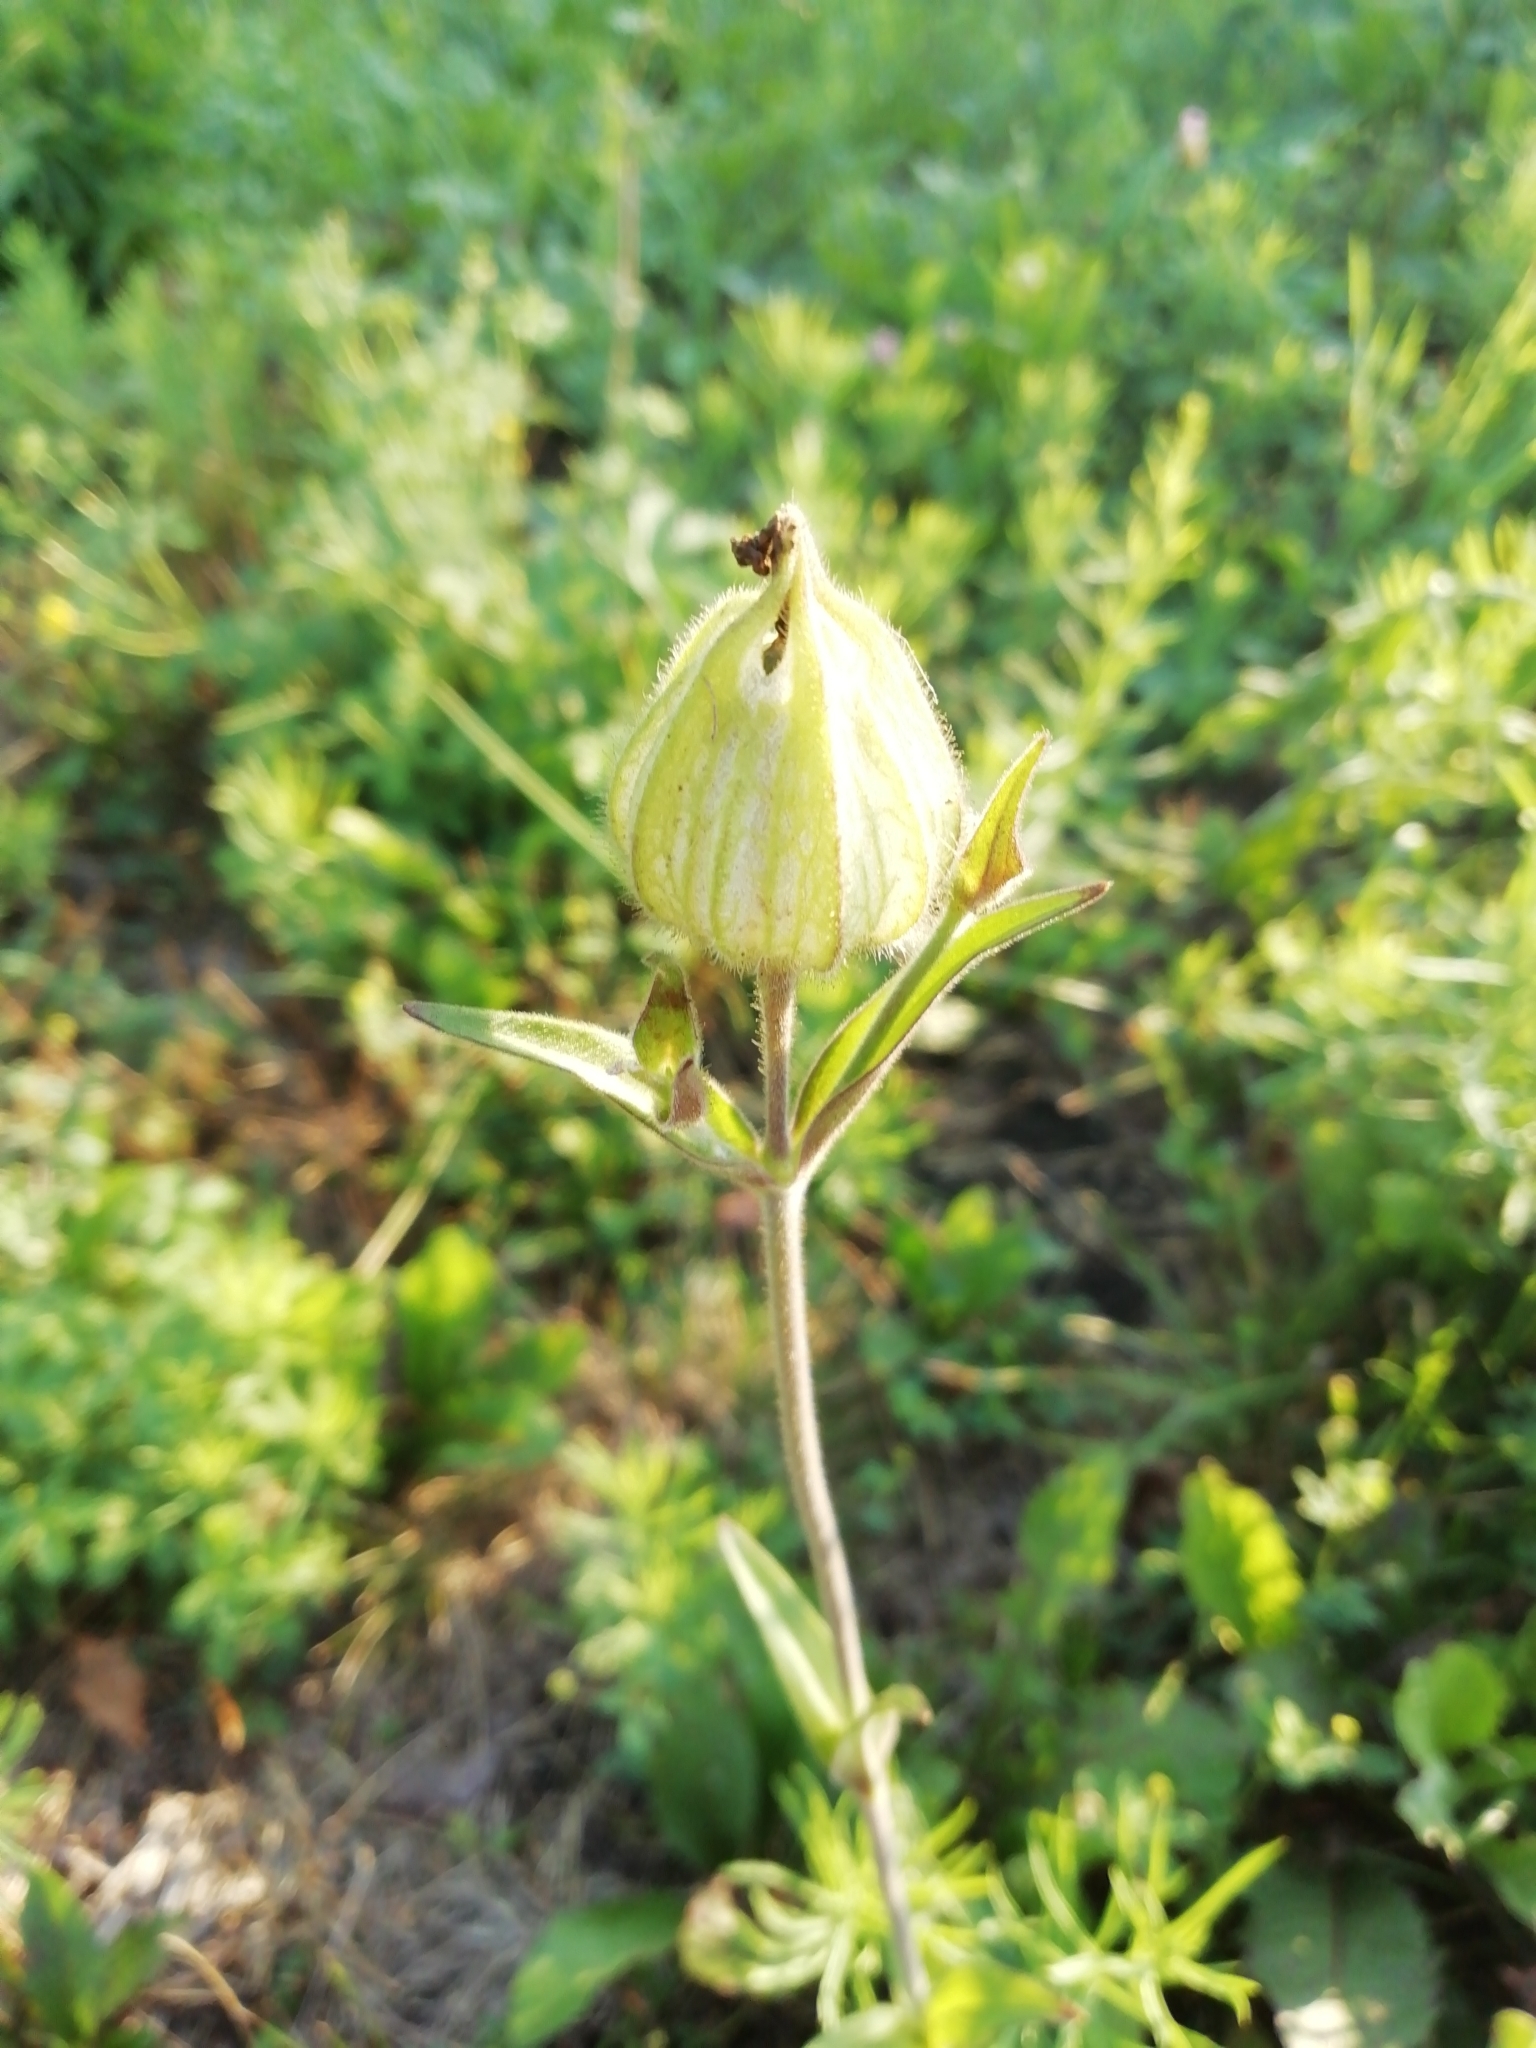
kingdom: Plantae
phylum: Tracheophyta
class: Magnoliopsida
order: Caryophyllales
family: Caryophyllaceae
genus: Silene
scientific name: Silene latifolia
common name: White campion
